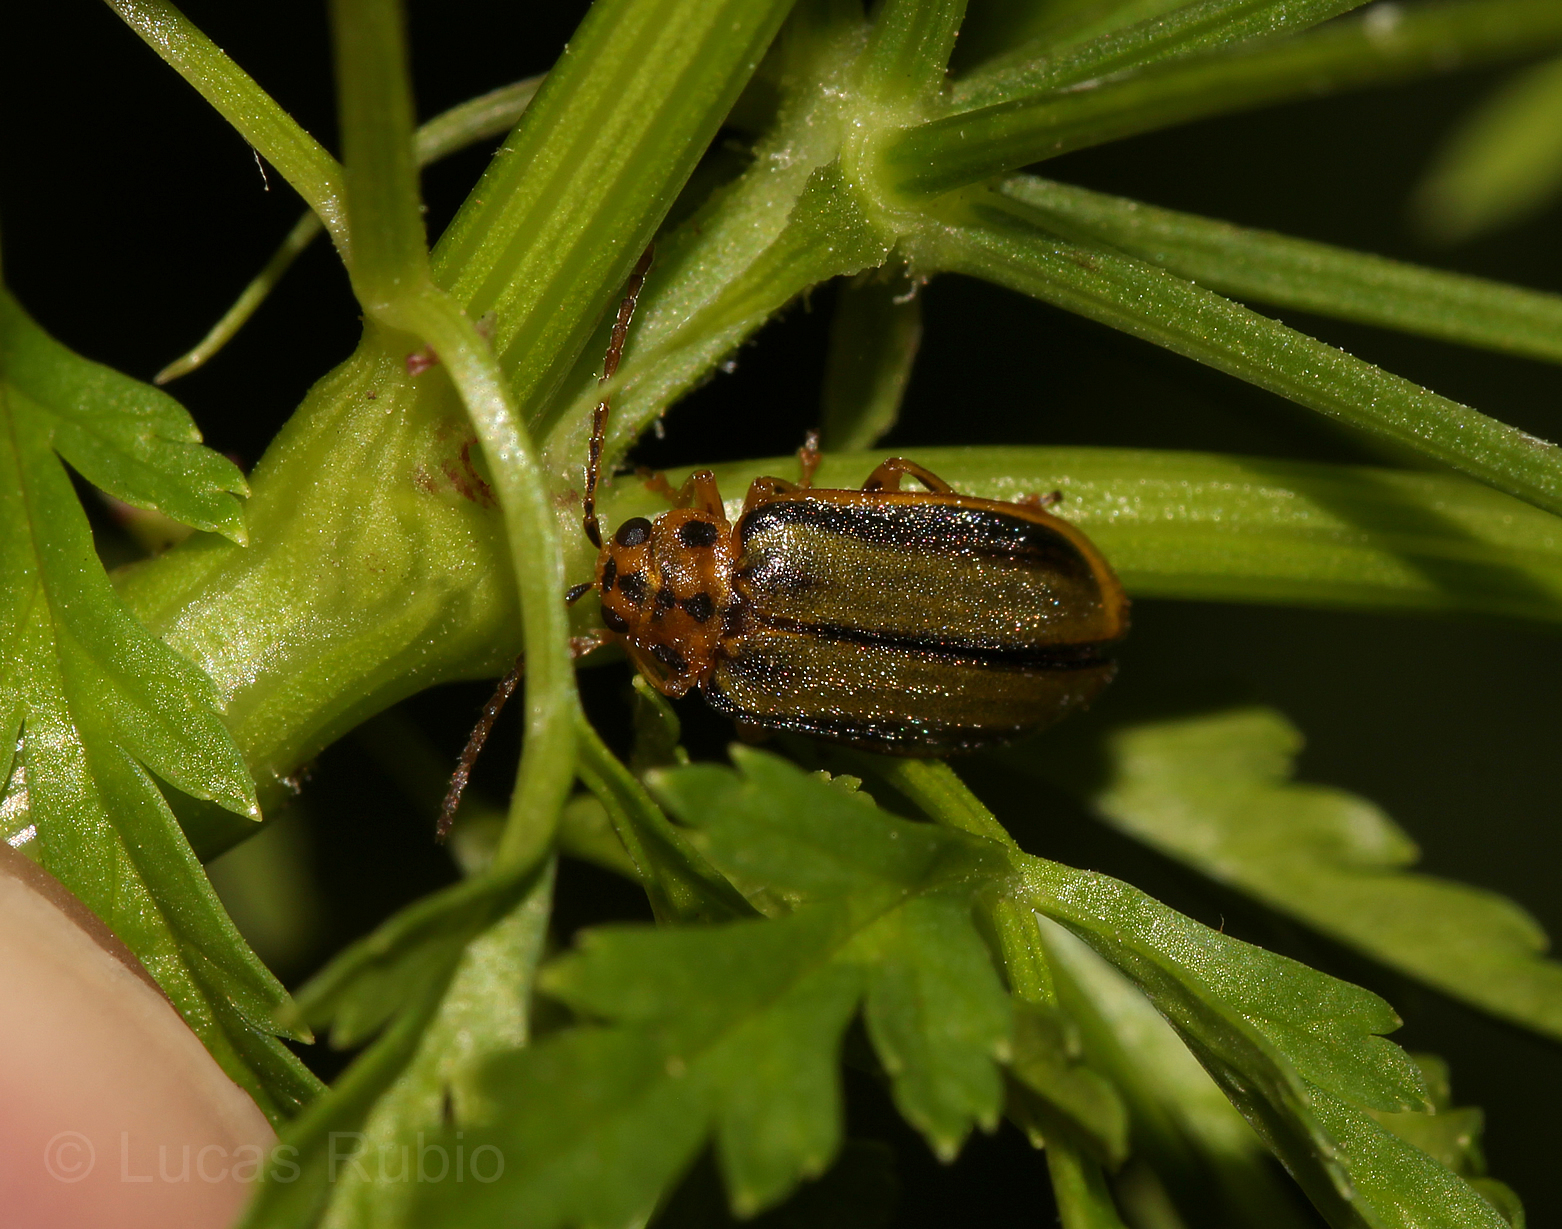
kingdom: Animalia
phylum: Arthropoda
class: Insecta
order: Coleoptera
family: Chrysomelidae
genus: Xanthogaleruca
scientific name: Xanthogaleruca luteola
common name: Elm leaf beetle
